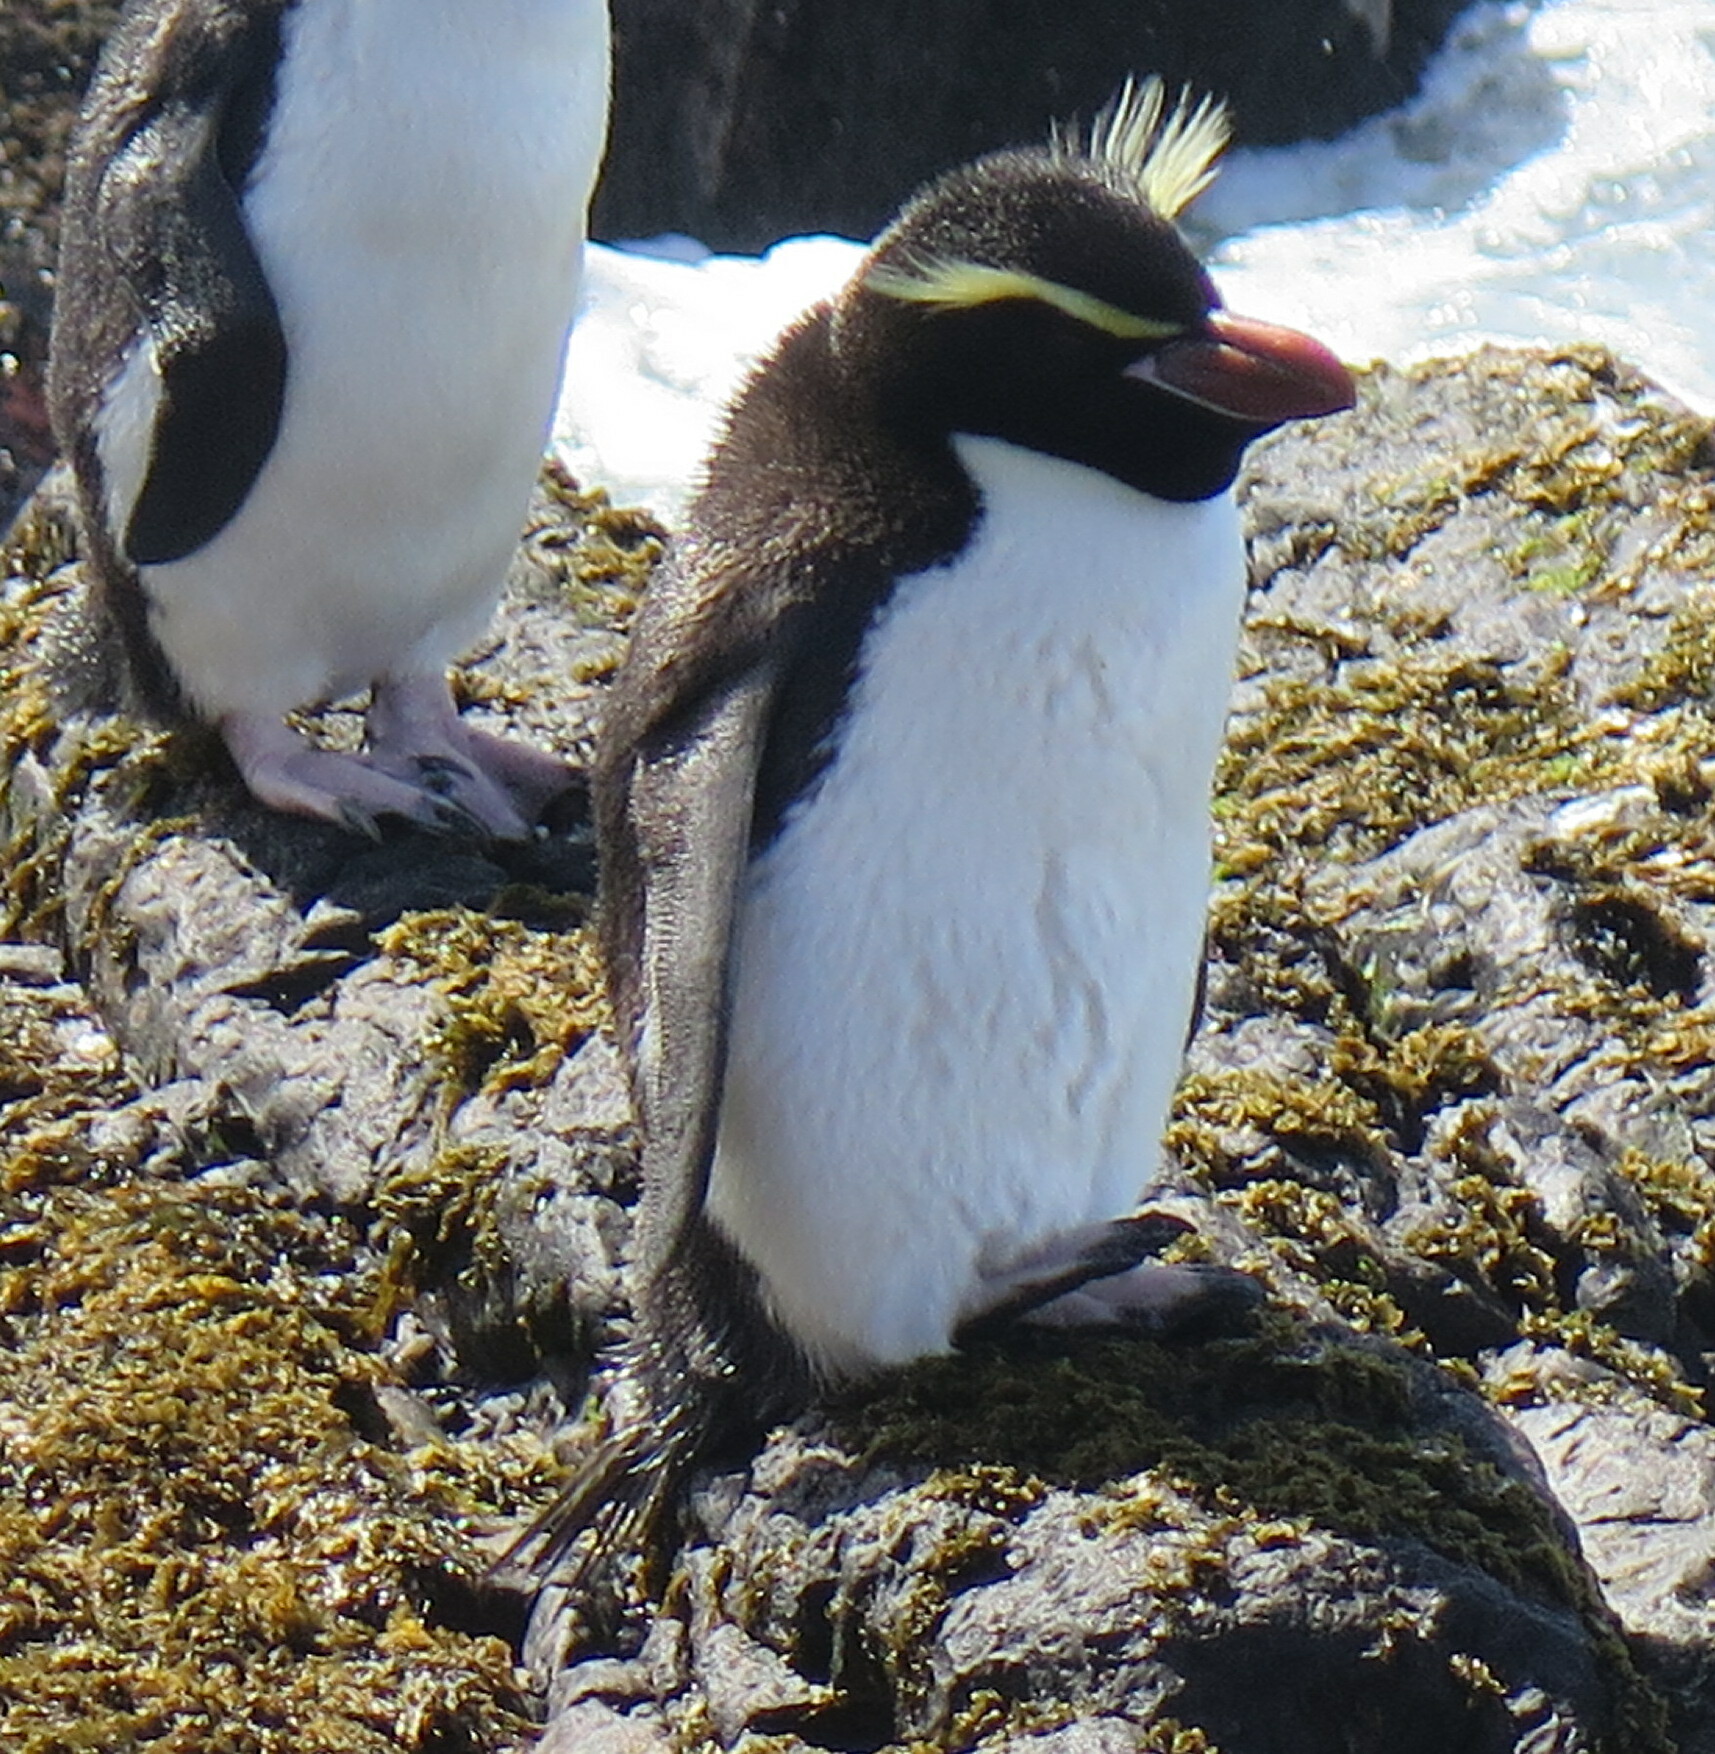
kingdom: Animalia
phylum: Chordata
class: Aves
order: Sphenisciformes
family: Spheniscidae
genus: Eudyptes
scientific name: Eudyptes robustus
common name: Snares penguin
